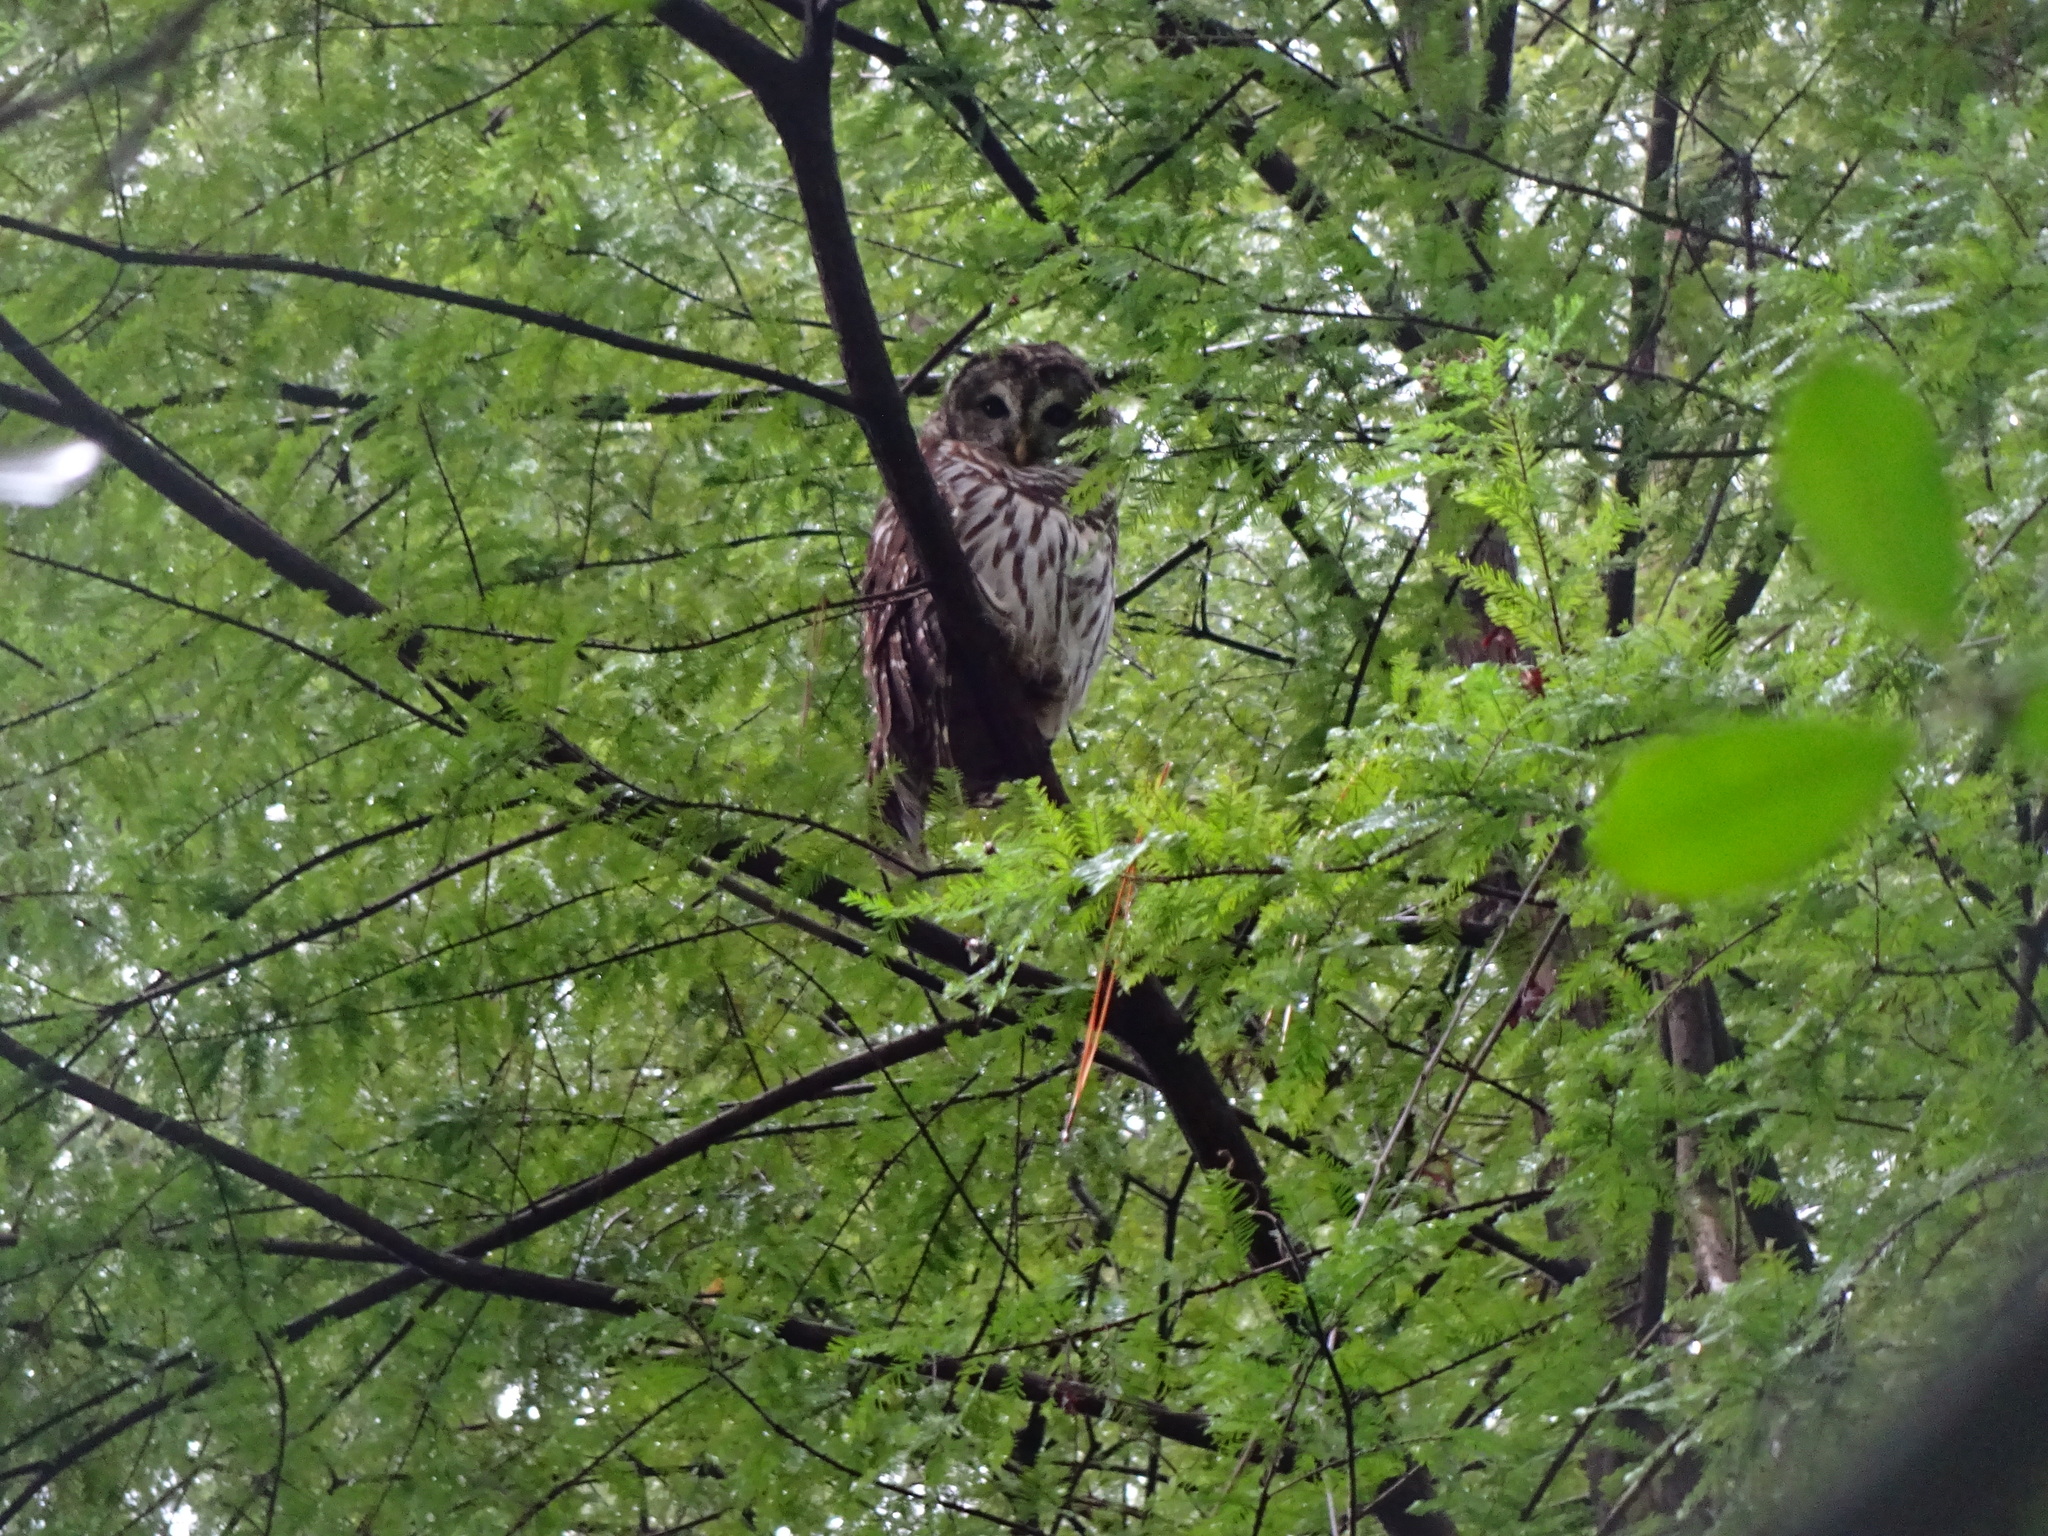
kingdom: Animalia
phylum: Chordata
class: Aves
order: Strigiformes
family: Strigidae
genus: Strix
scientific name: Strix varia
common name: Barred owl
